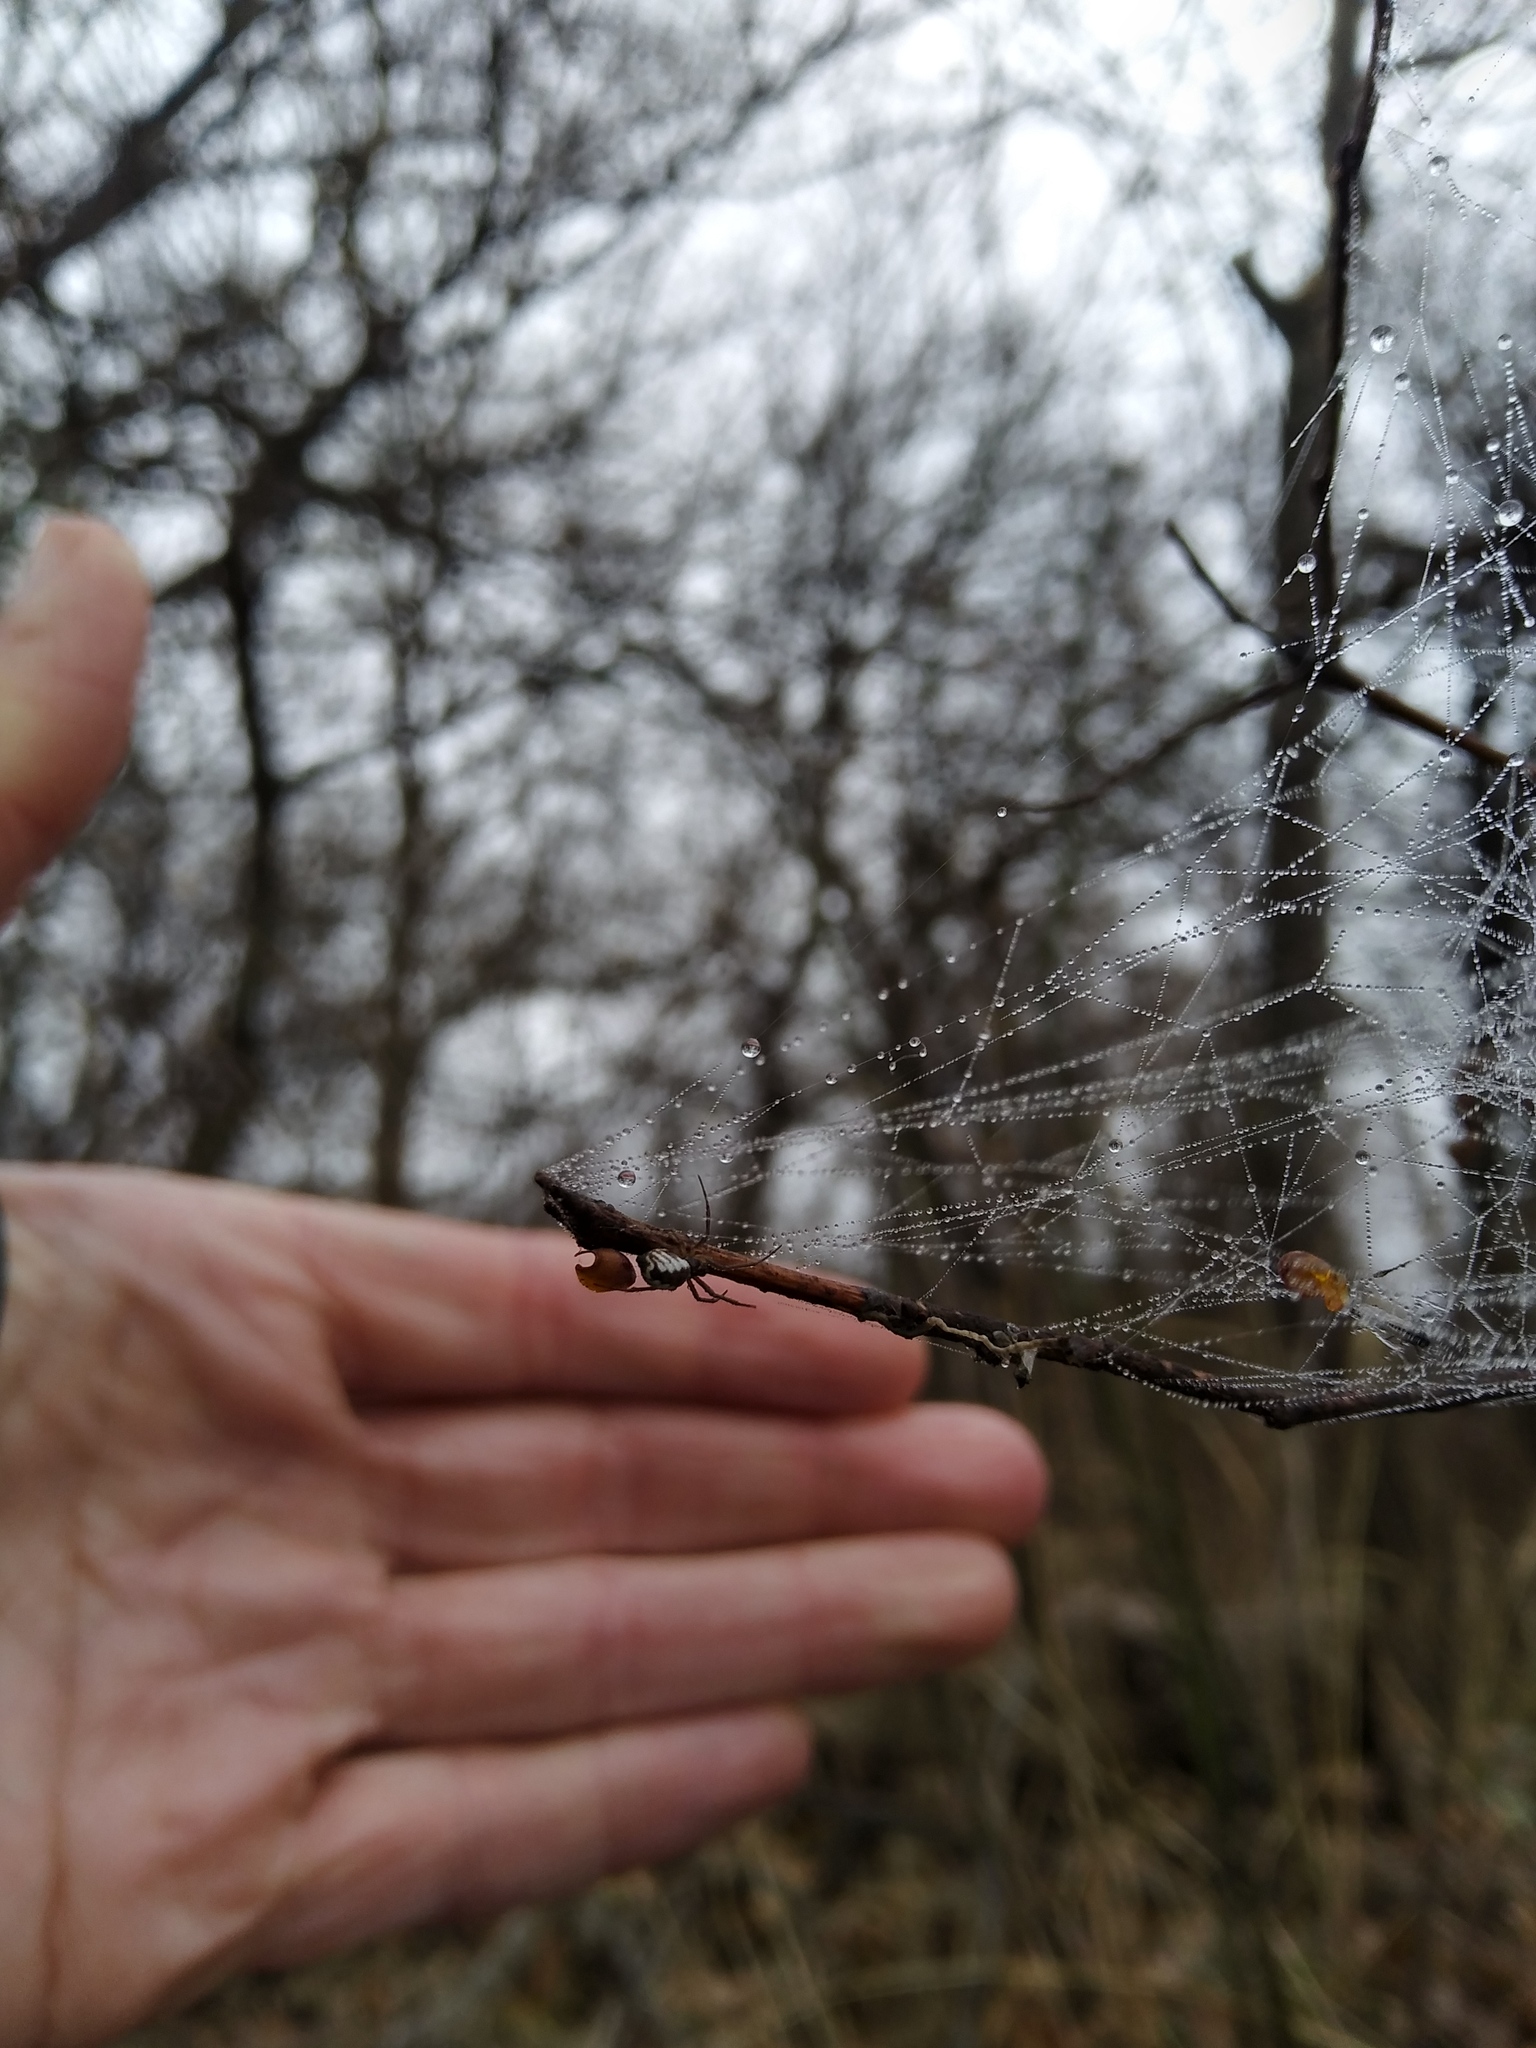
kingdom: Animalia
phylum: Arthropoda
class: Arachnida
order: Araneae
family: Linyphiidae
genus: Frontinella
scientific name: Frontinella pyramitela
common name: Bowl-and-doily spider
